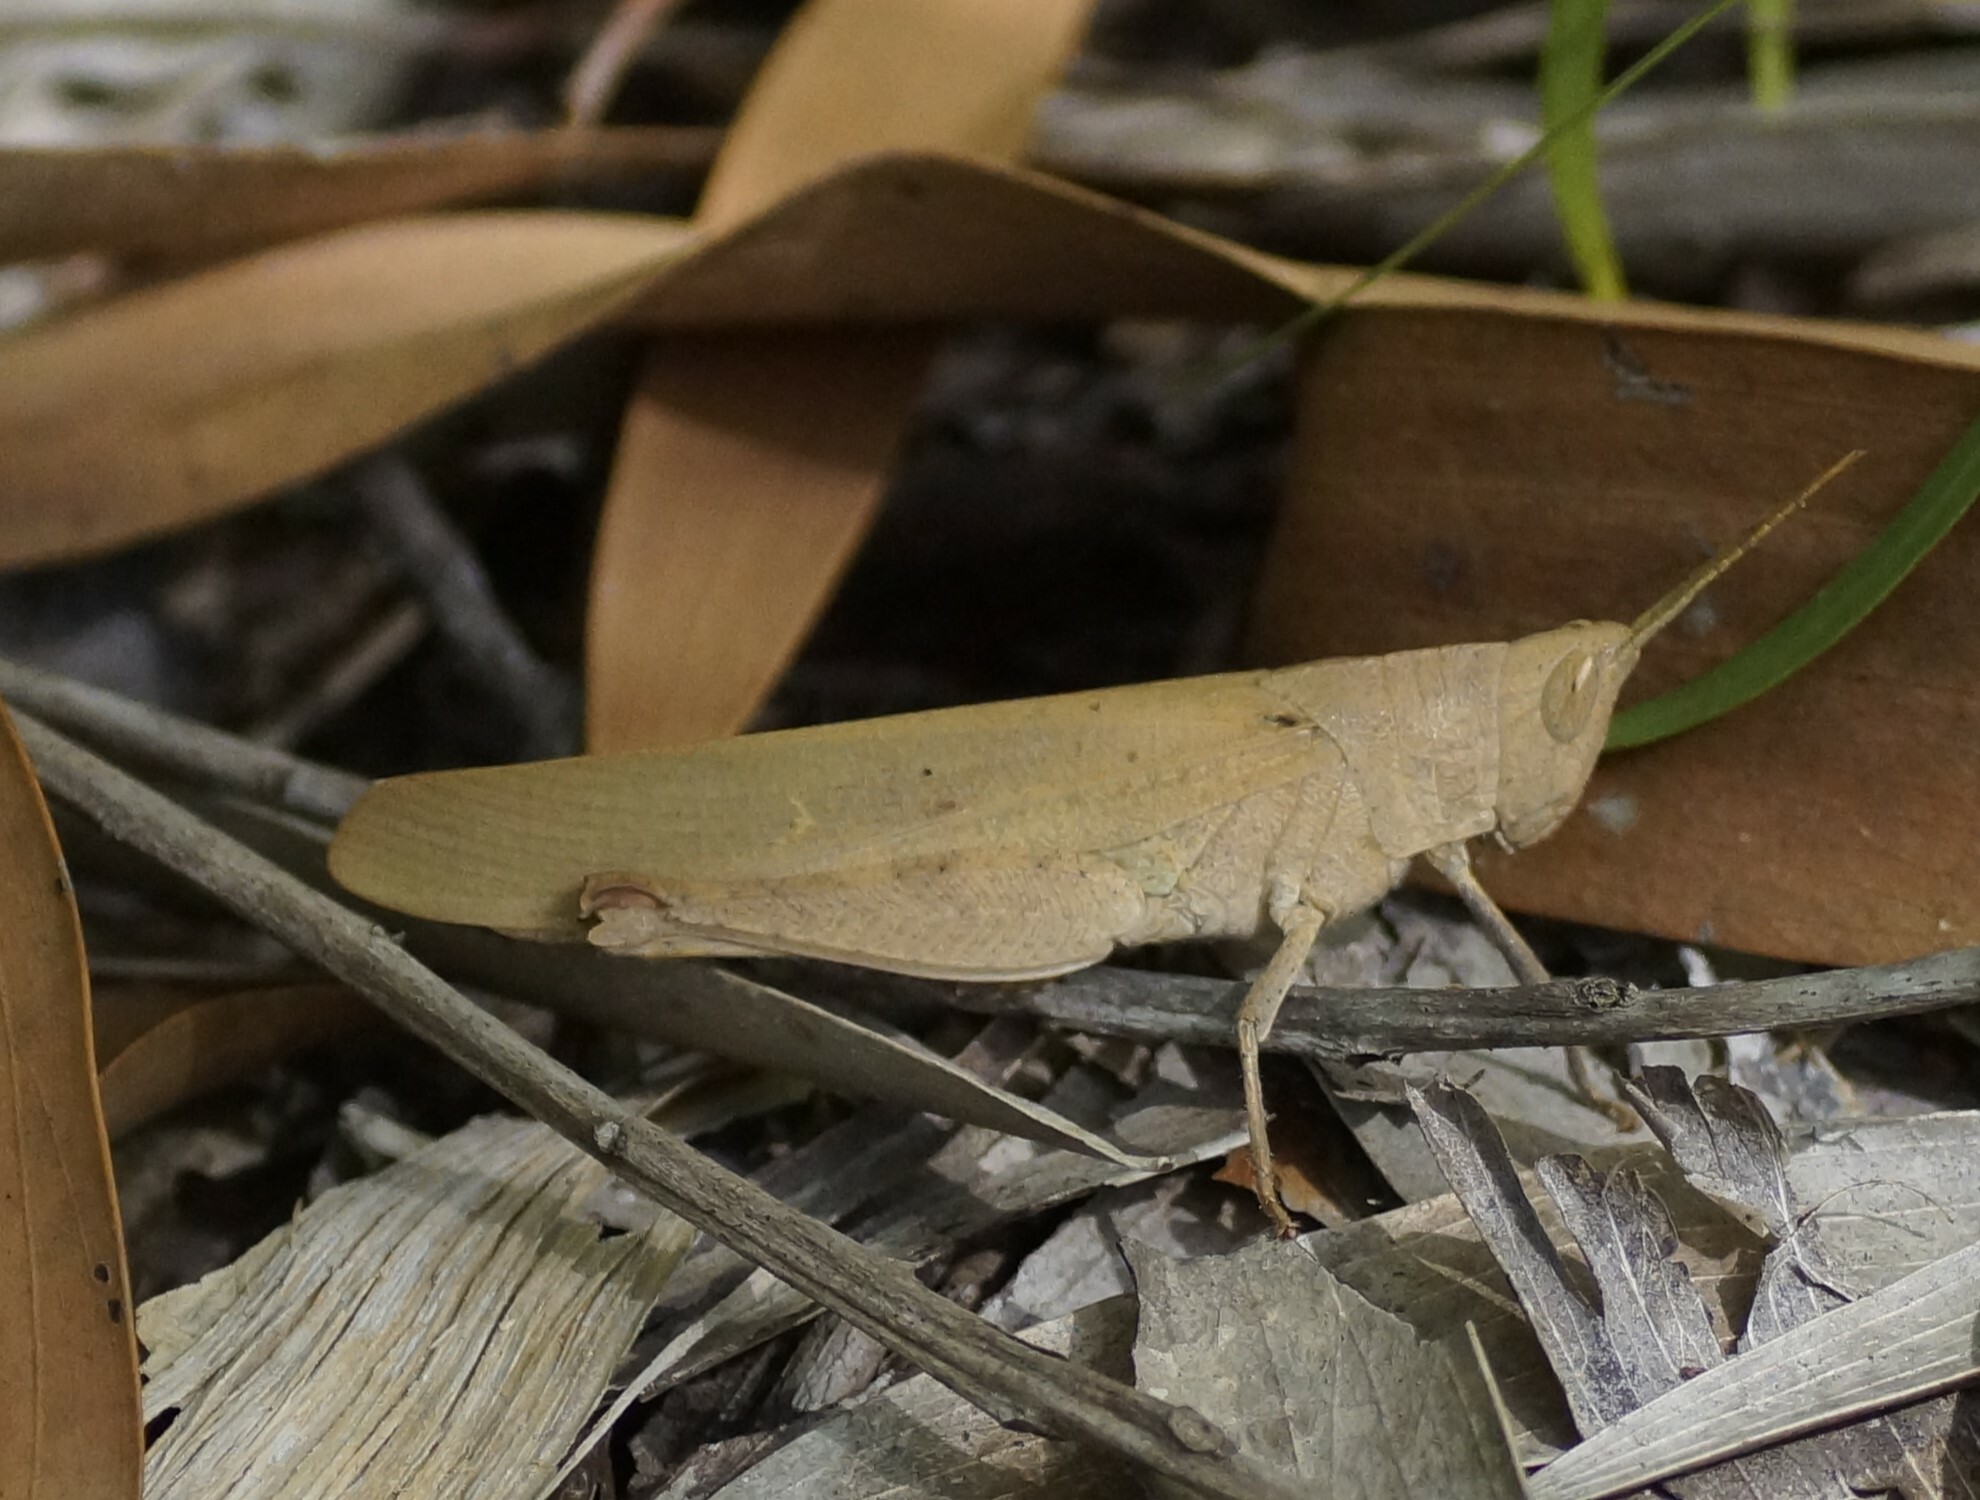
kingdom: Animalia
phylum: Arthropoda
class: Insecta
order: Orthoptera
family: Acrididae
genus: Goniaea
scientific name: Goniaea vocans
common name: Slender gumleaf grasshopper
